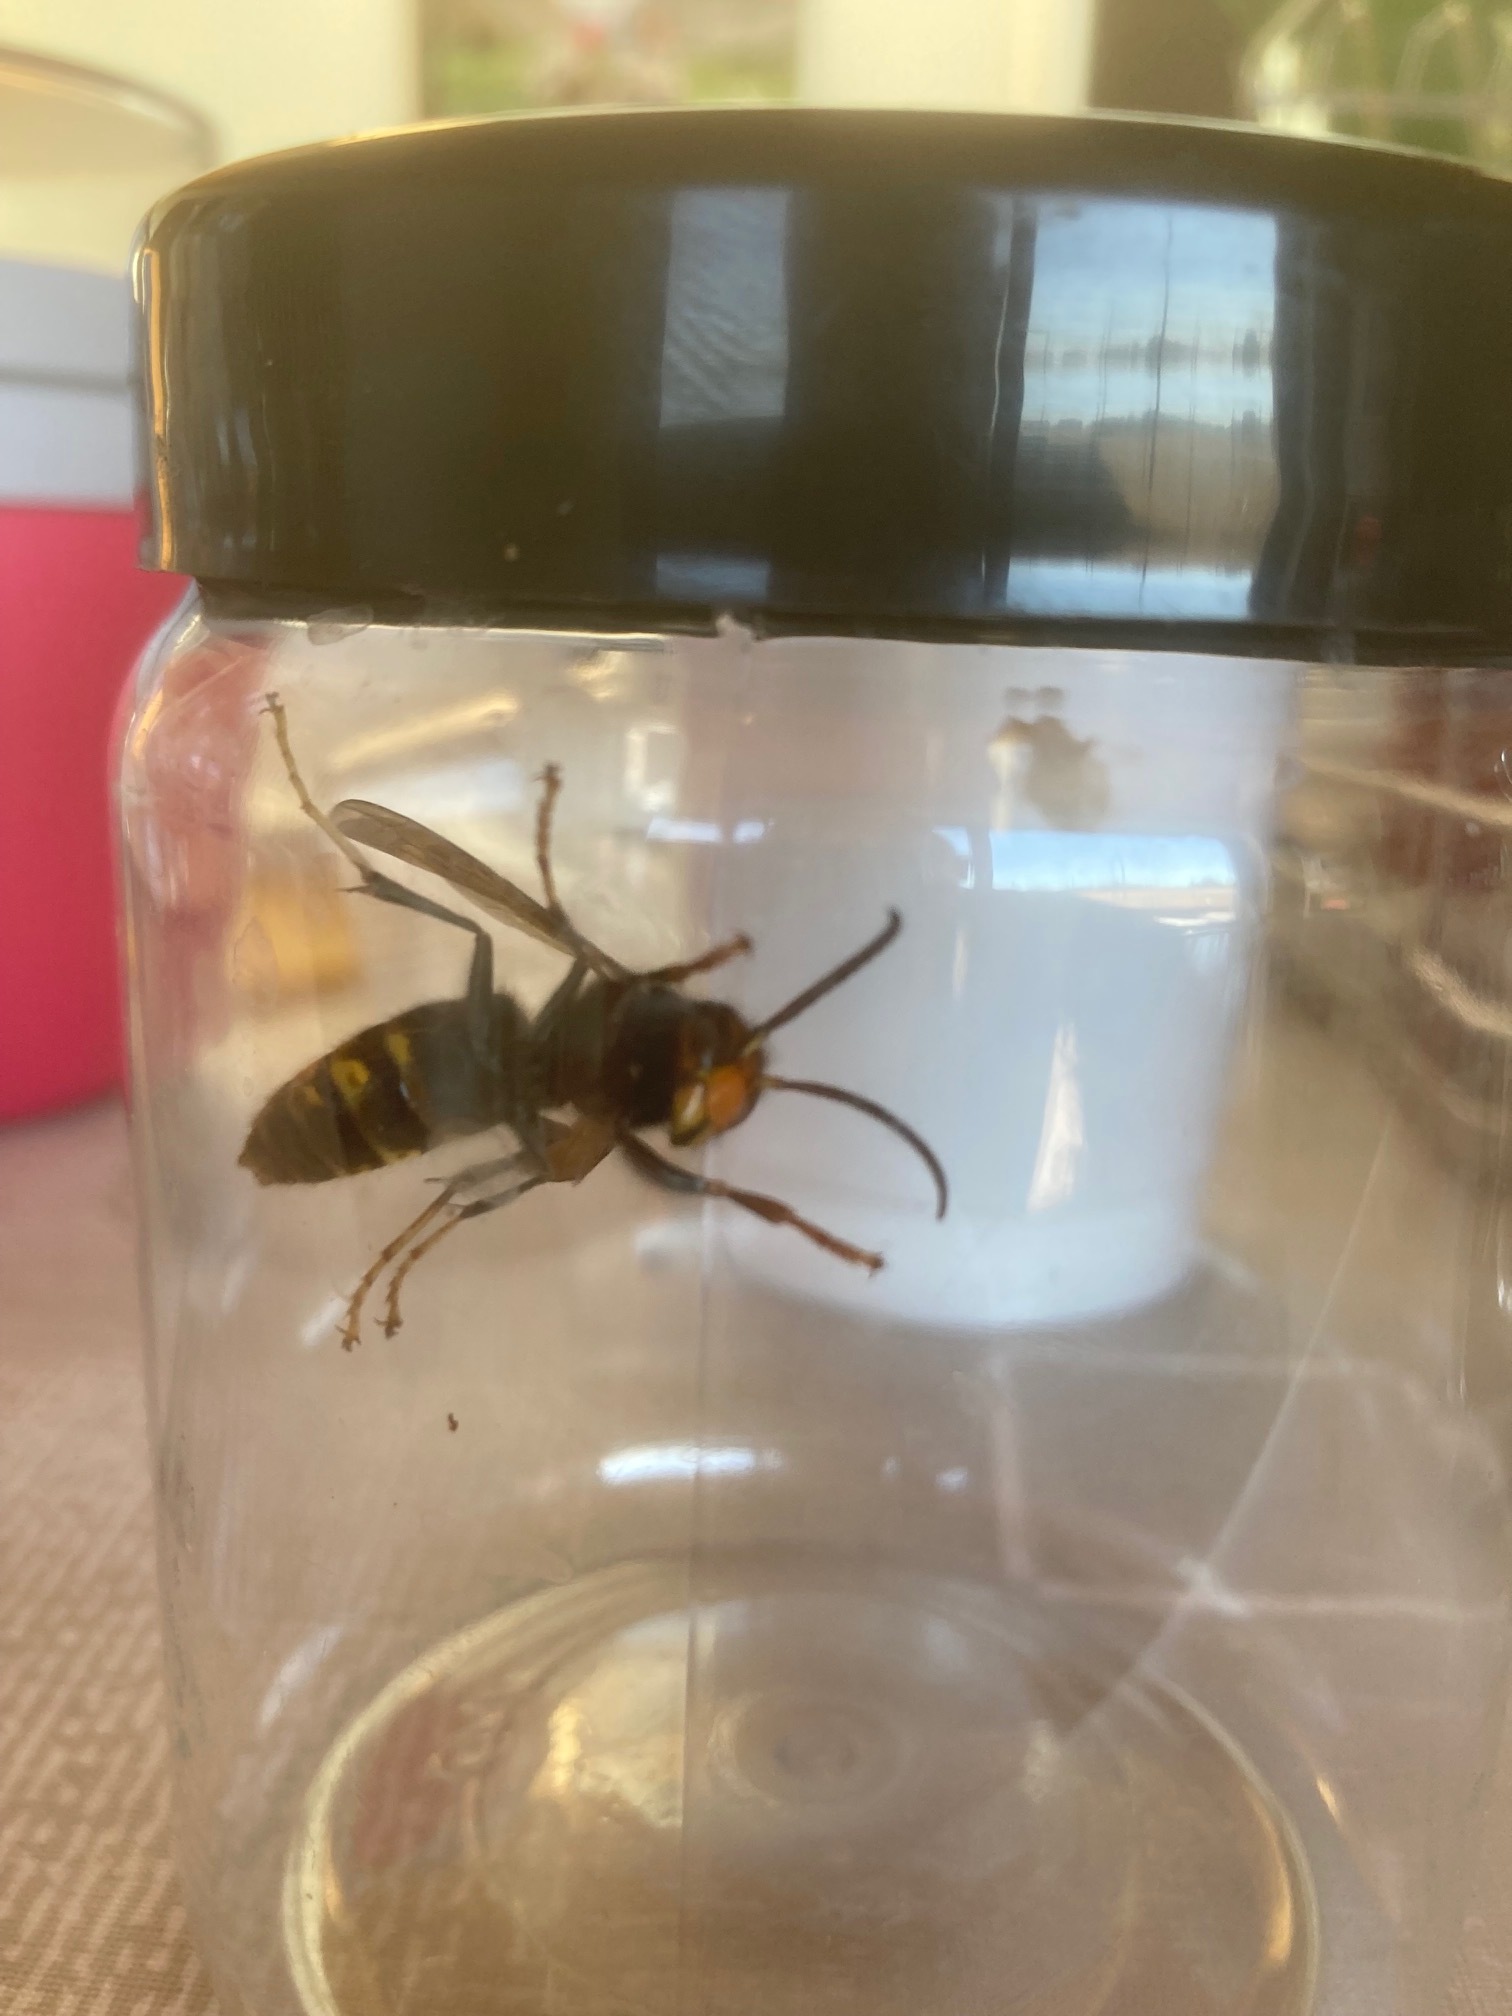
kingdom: Animalia
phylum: Arthropoda
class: Insecta
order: Hymenoptera
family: Vespidae
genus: Vespa
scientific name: Vespa velutina
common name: Asian hornet
